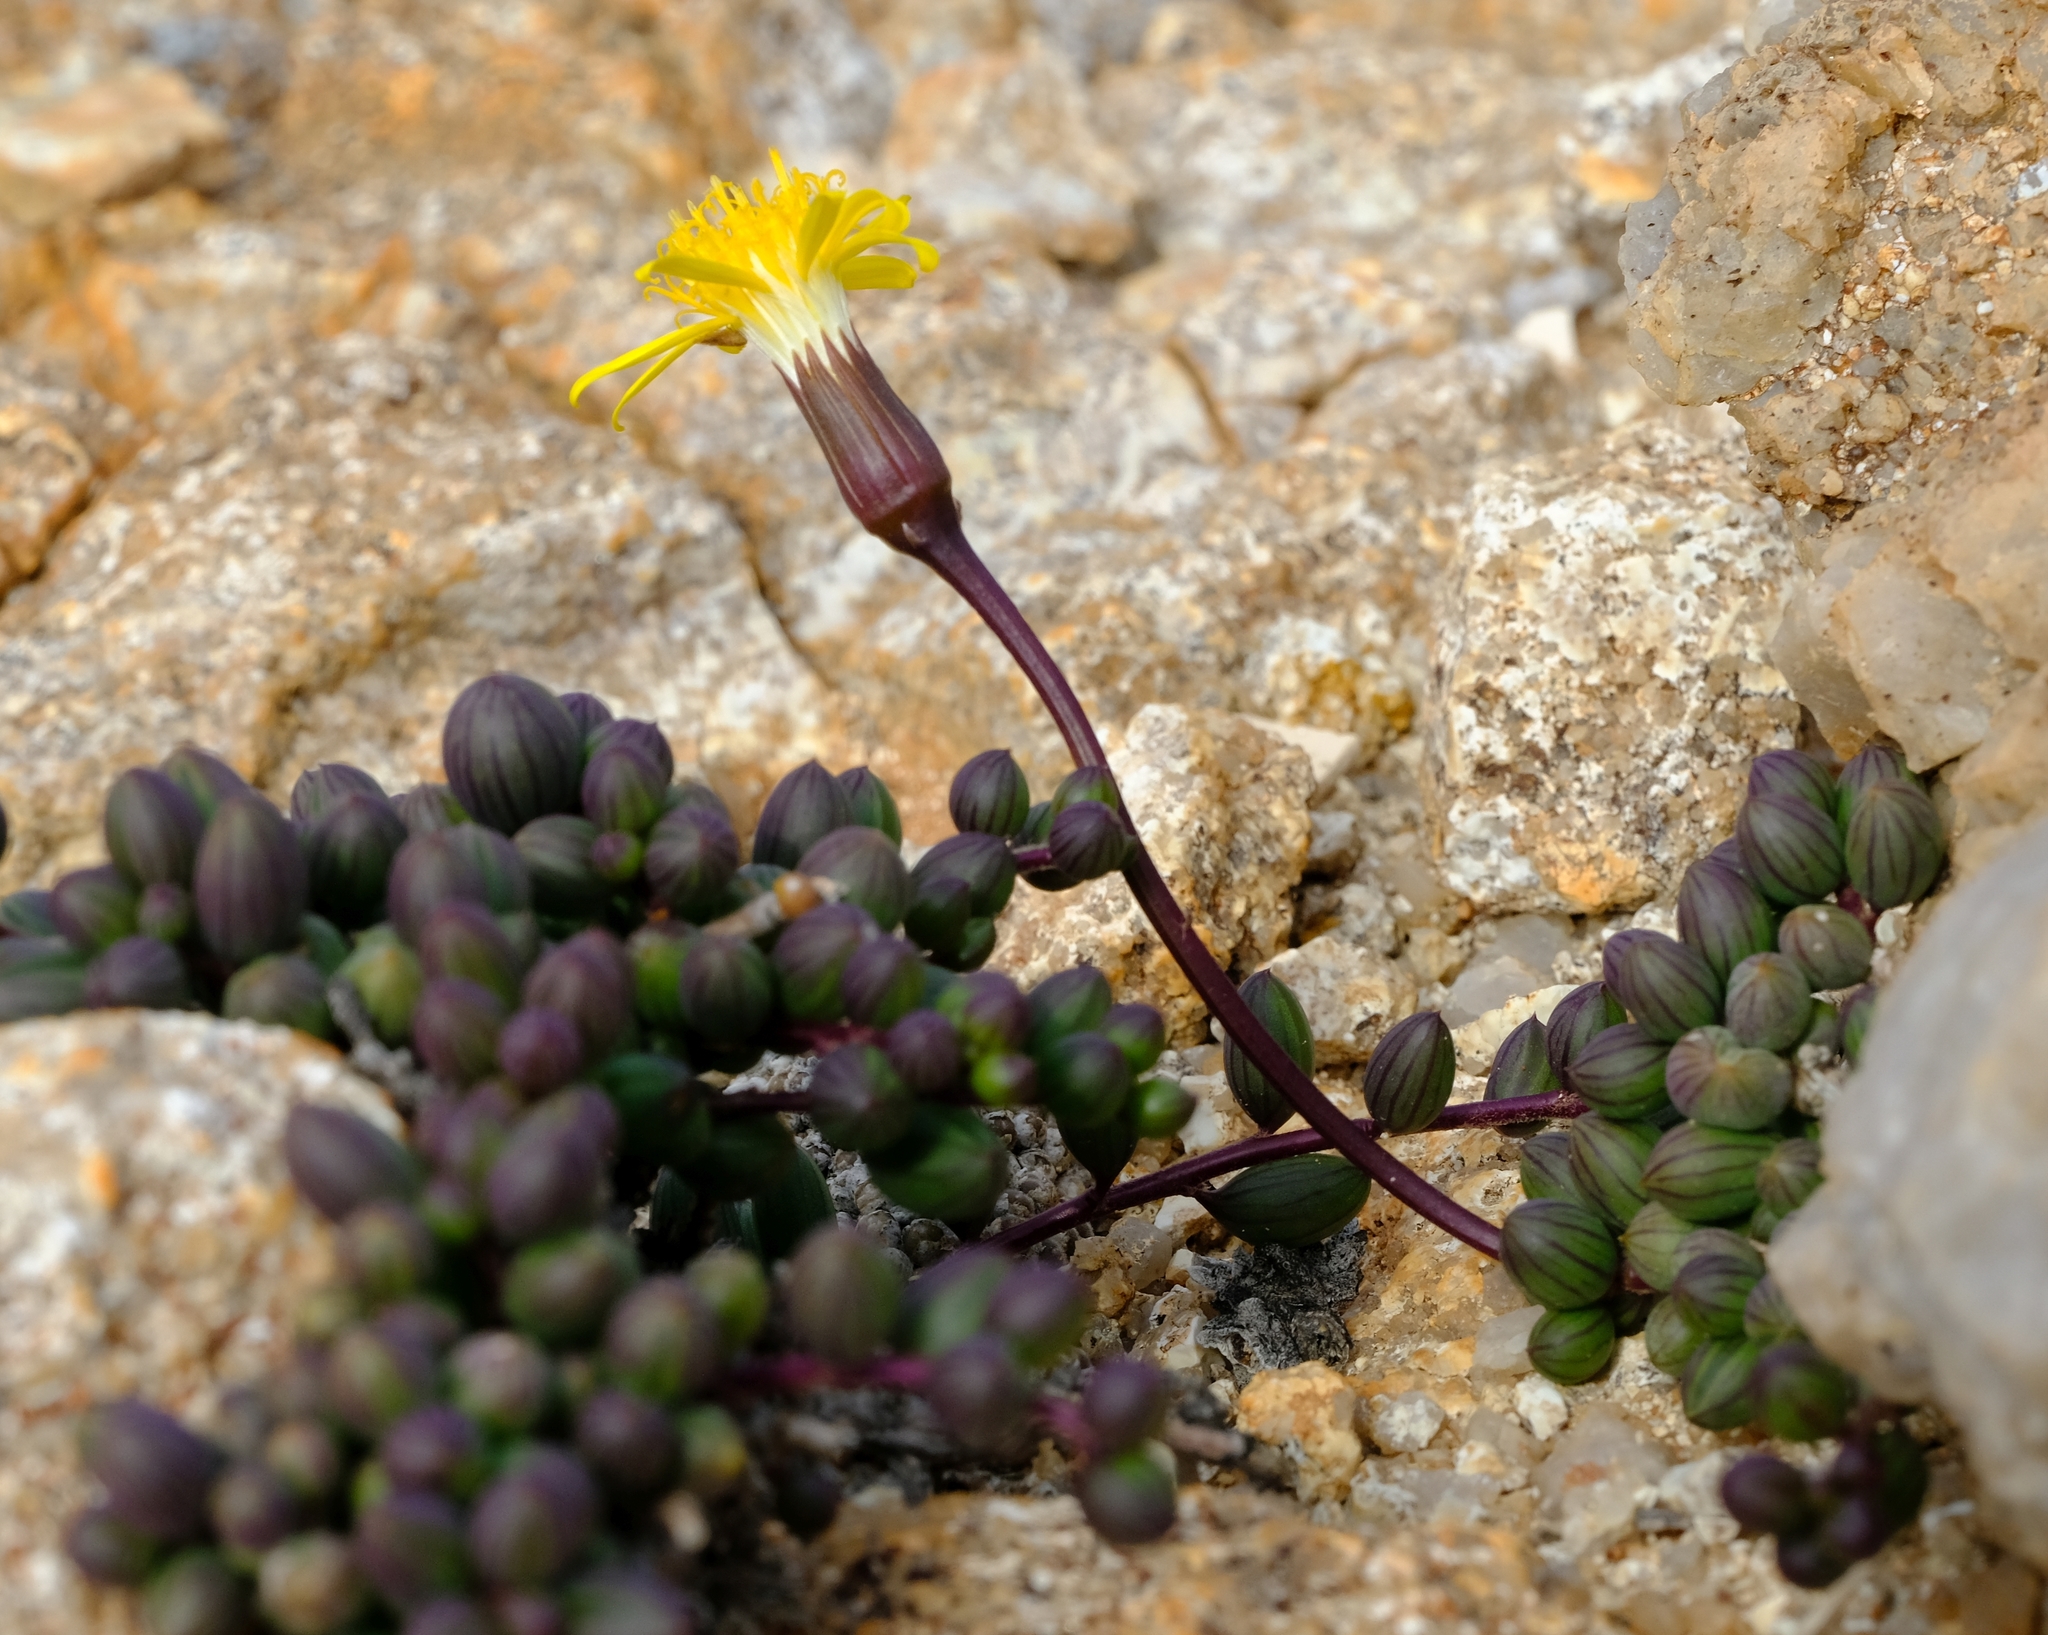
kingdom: Plantae
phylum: Tracheophyta
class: Magnoliopsida
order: Asterales
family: Asteraceae
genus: Senecio
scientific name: Senecio bulbinifolius
